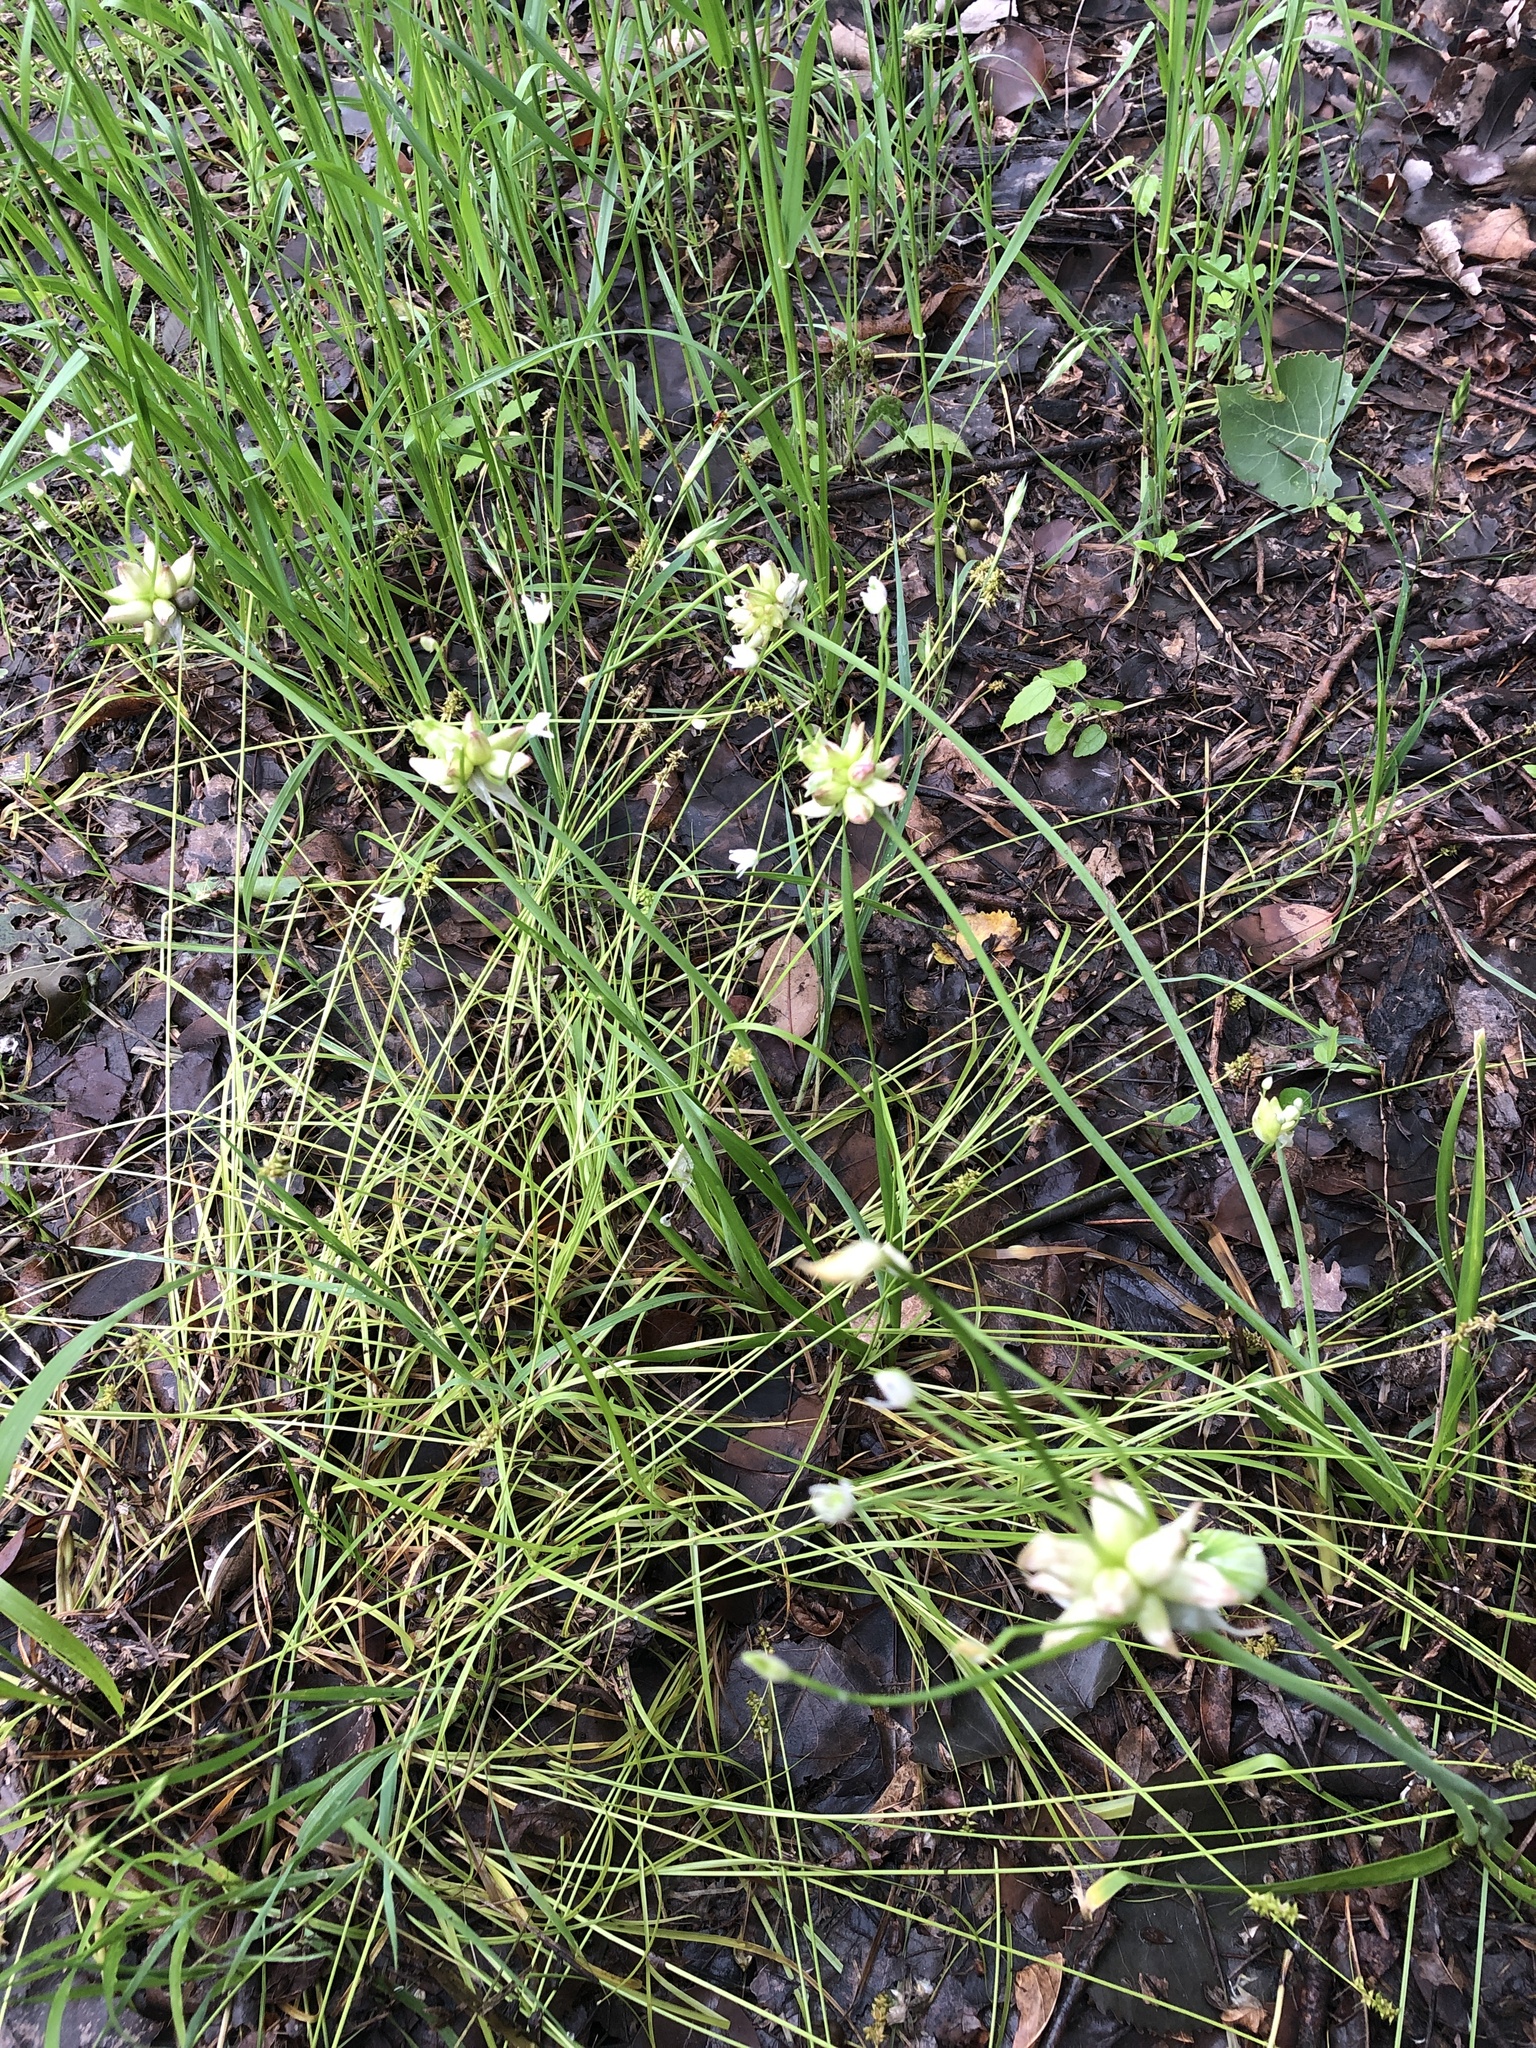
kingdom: Plantae
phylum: Tracheophyta
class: Liliopsida
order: Asparagales
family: Amaryllidaceae
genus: Allium
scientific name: Allium canadense
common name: Meadow garlic
